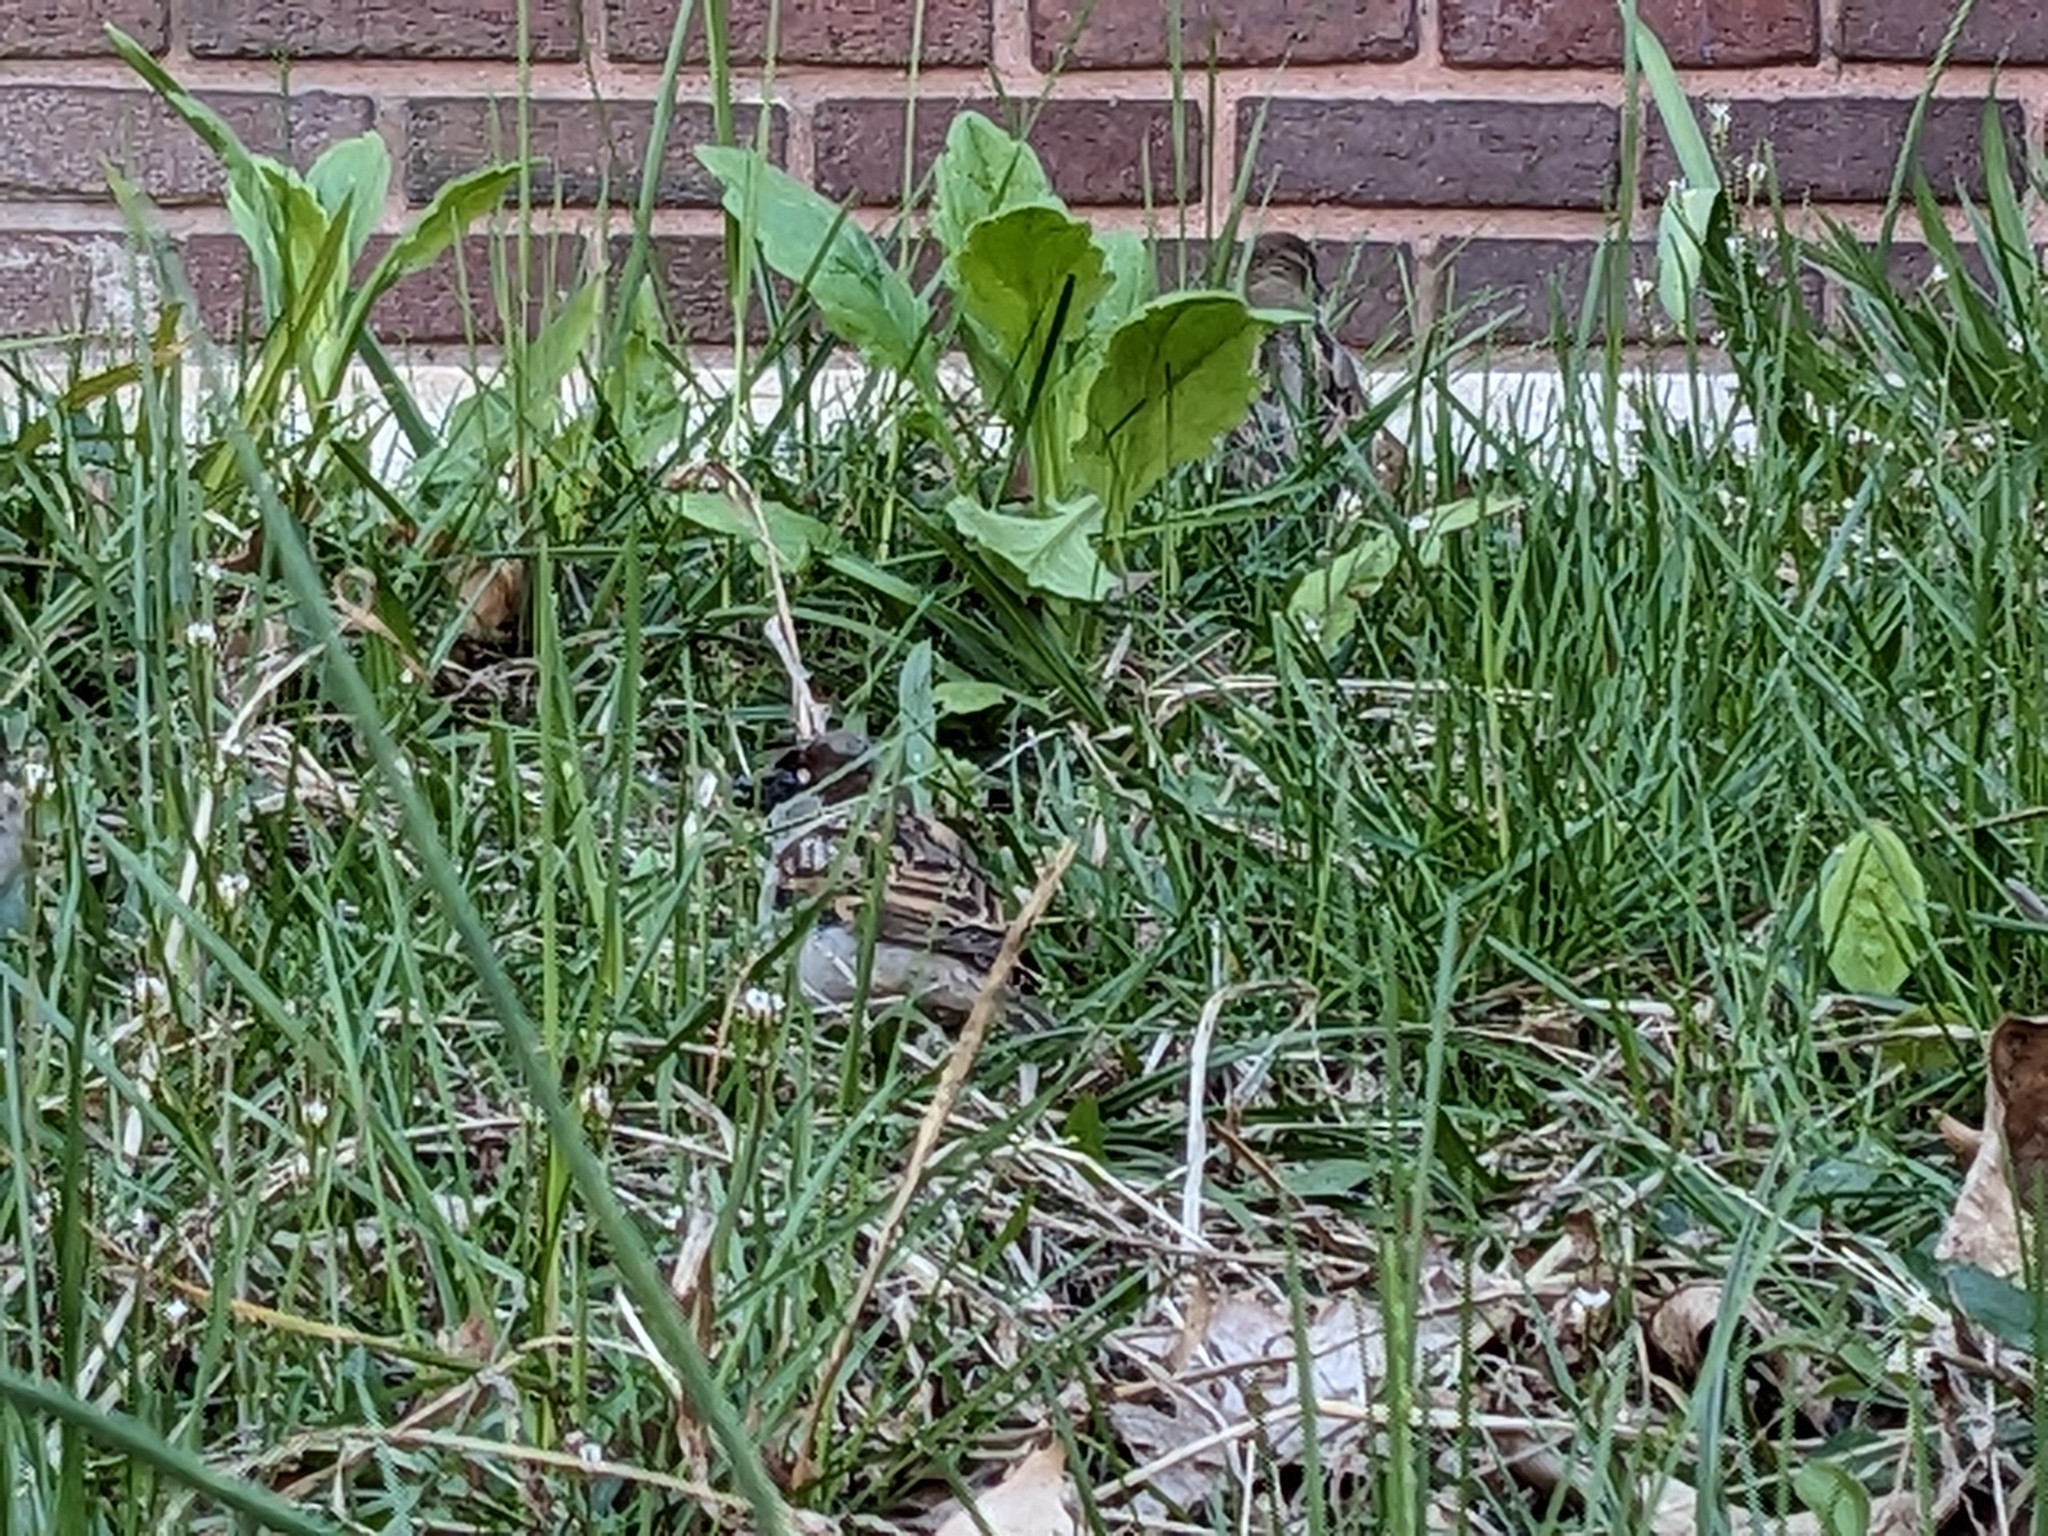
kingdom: Animalia
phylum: Chordata
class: Aves
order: Passeriformes
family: Passeridae
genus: Passer
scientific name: Passer domesticus
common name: House sparrow
